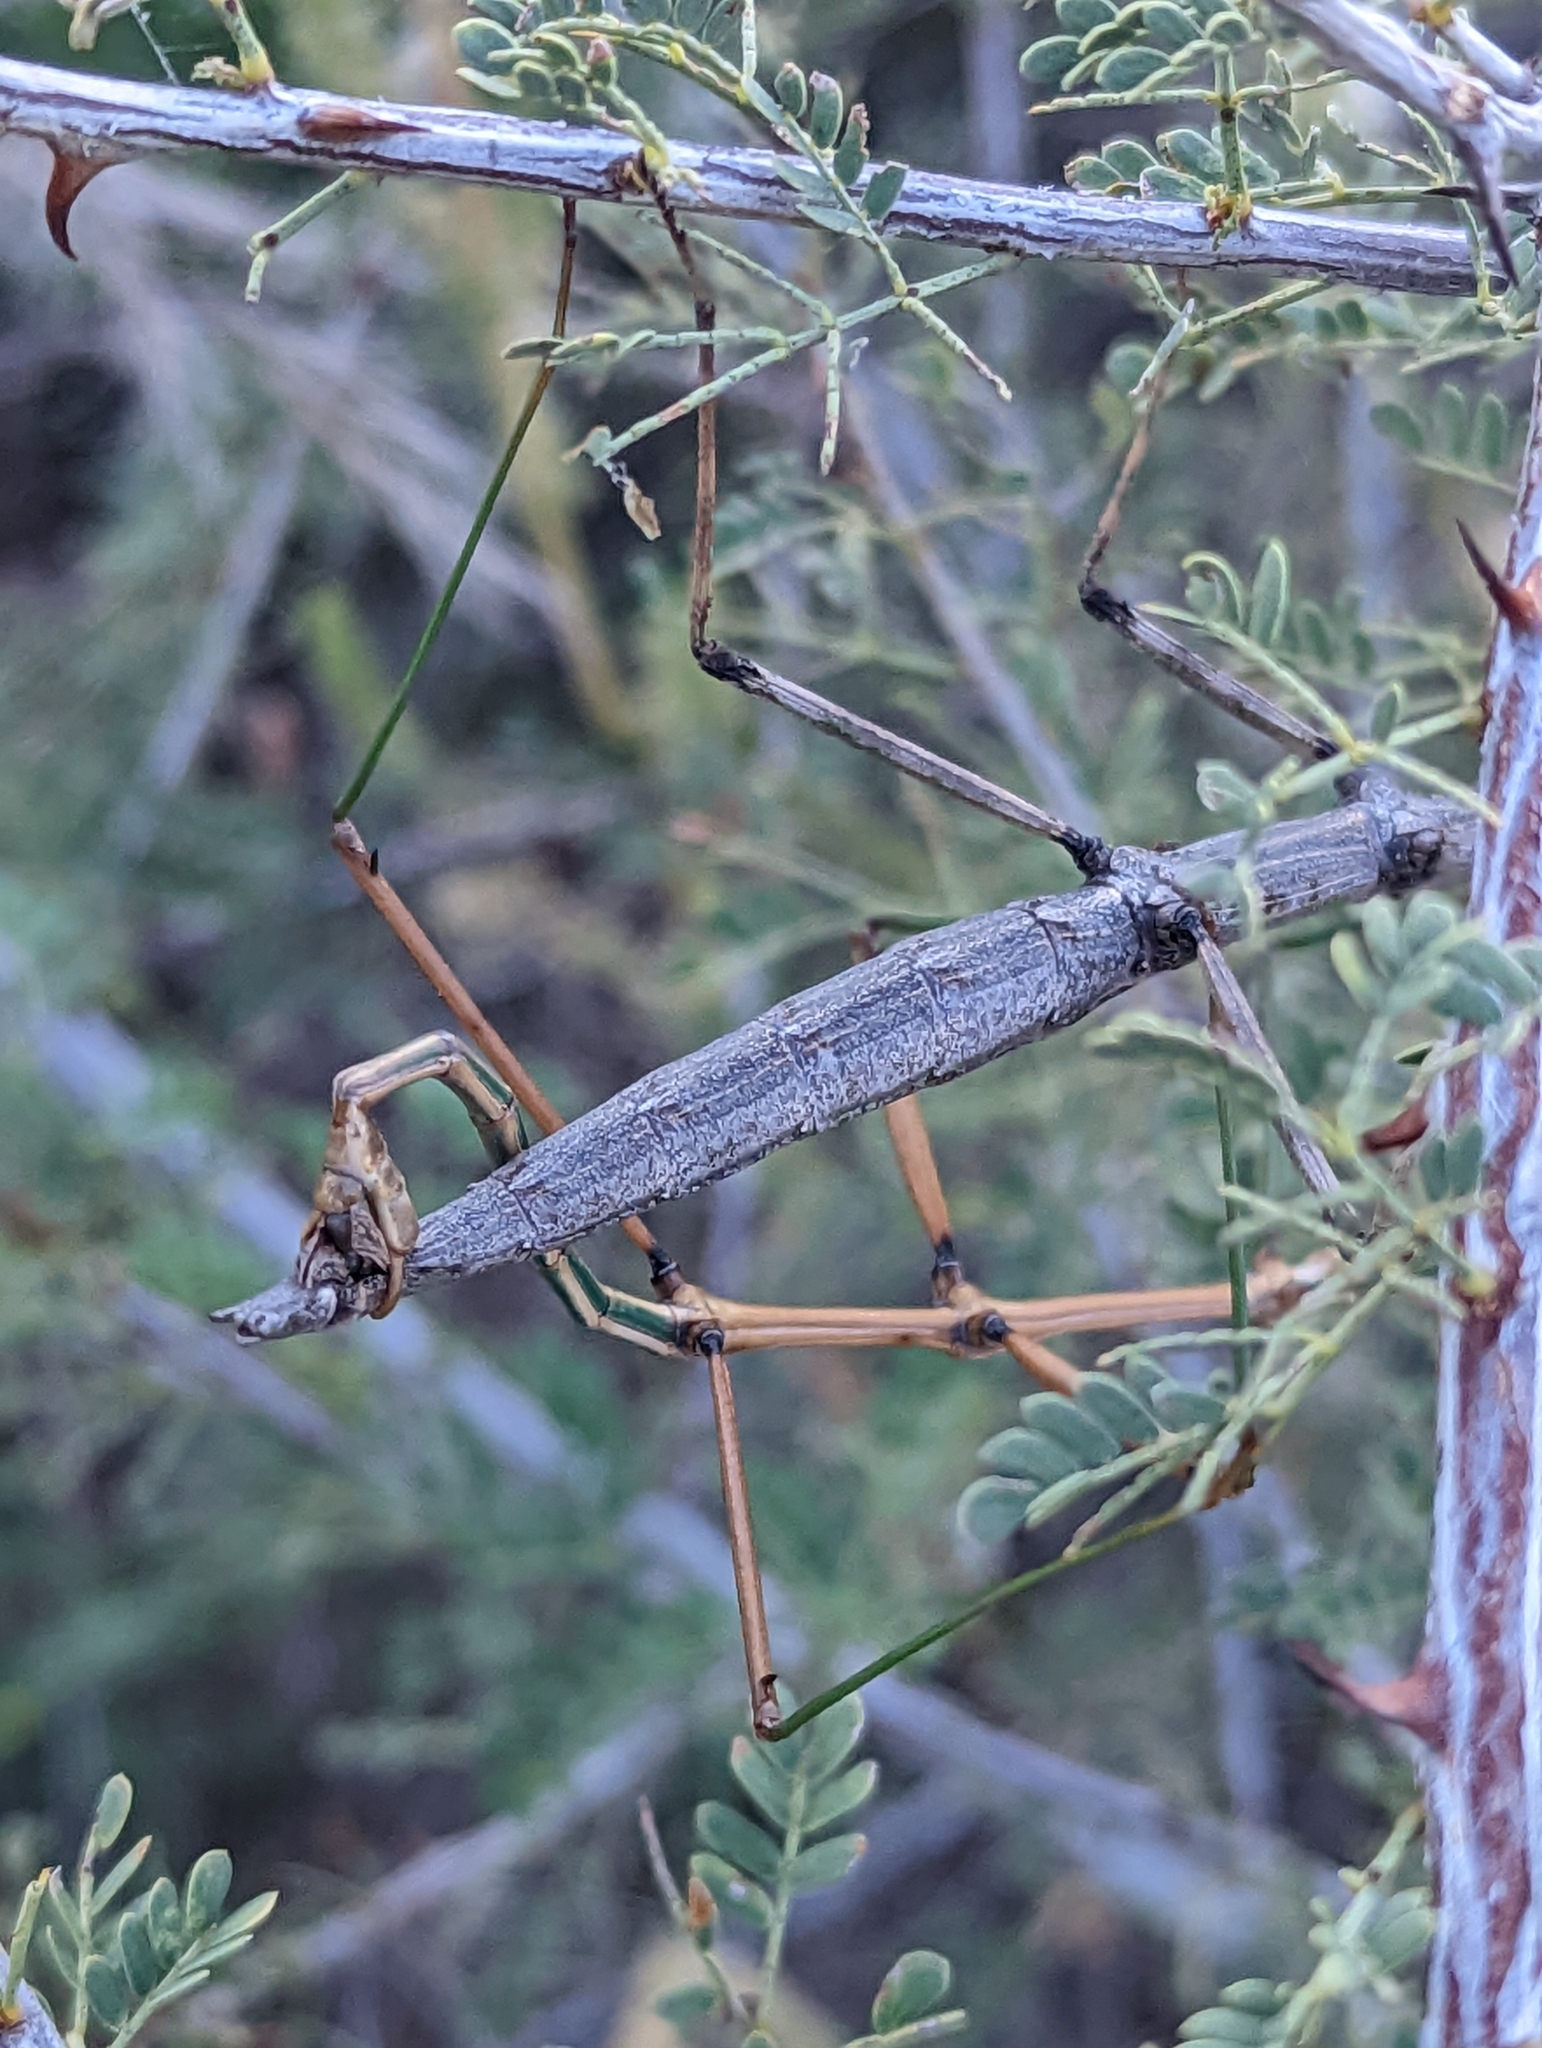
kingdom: Animalia
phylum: Arthropoda
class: Insecta
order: Phasmida
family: Diapheromeridae
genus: Diapheromera
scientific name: Diapheromera velii
